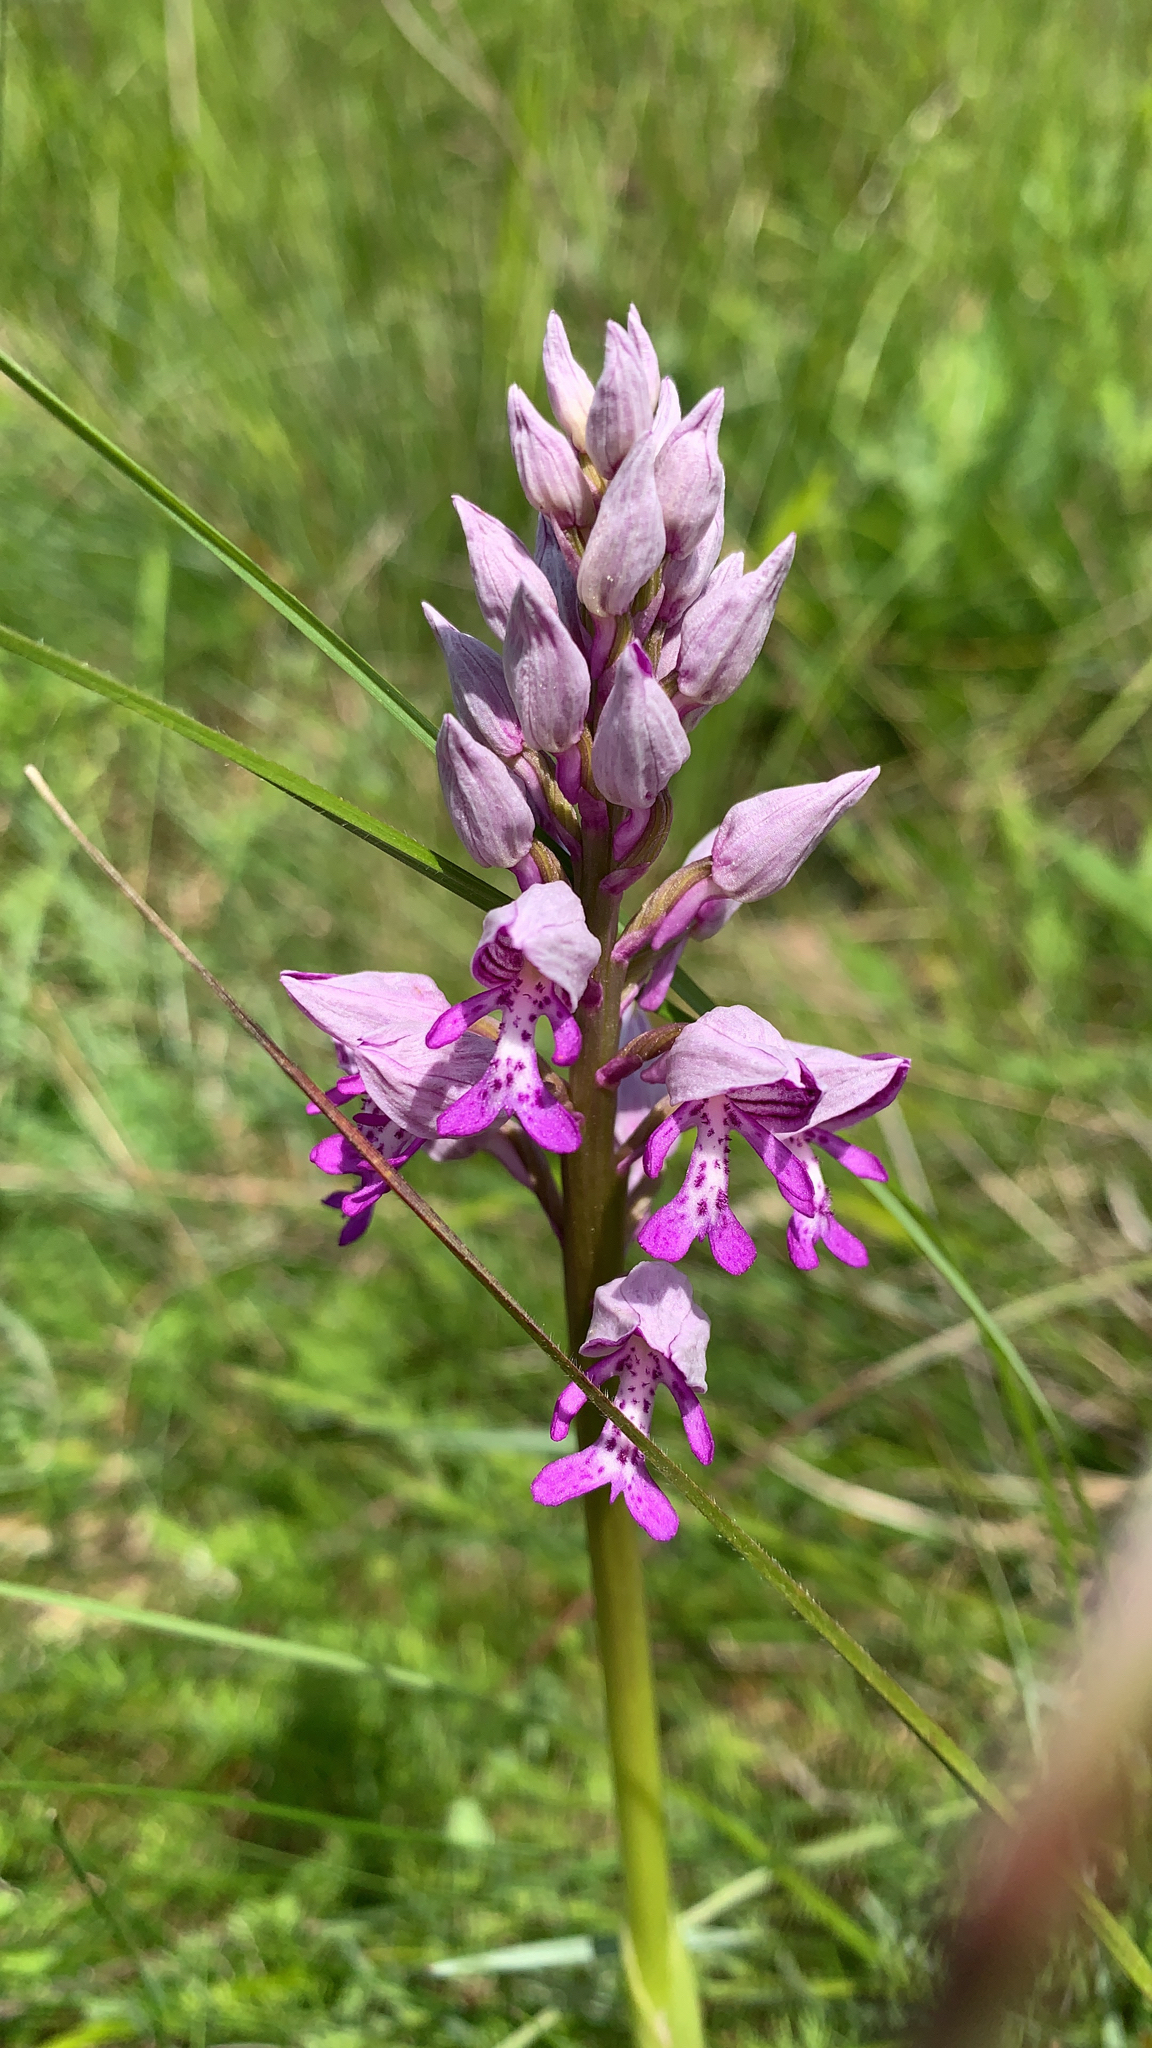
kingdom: Plantae
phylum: Tracheophyta
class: Liliopsida
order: Asparagales
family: Orchidaceae
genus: Orchis
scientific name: Orchis militaris
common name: Military orchid
